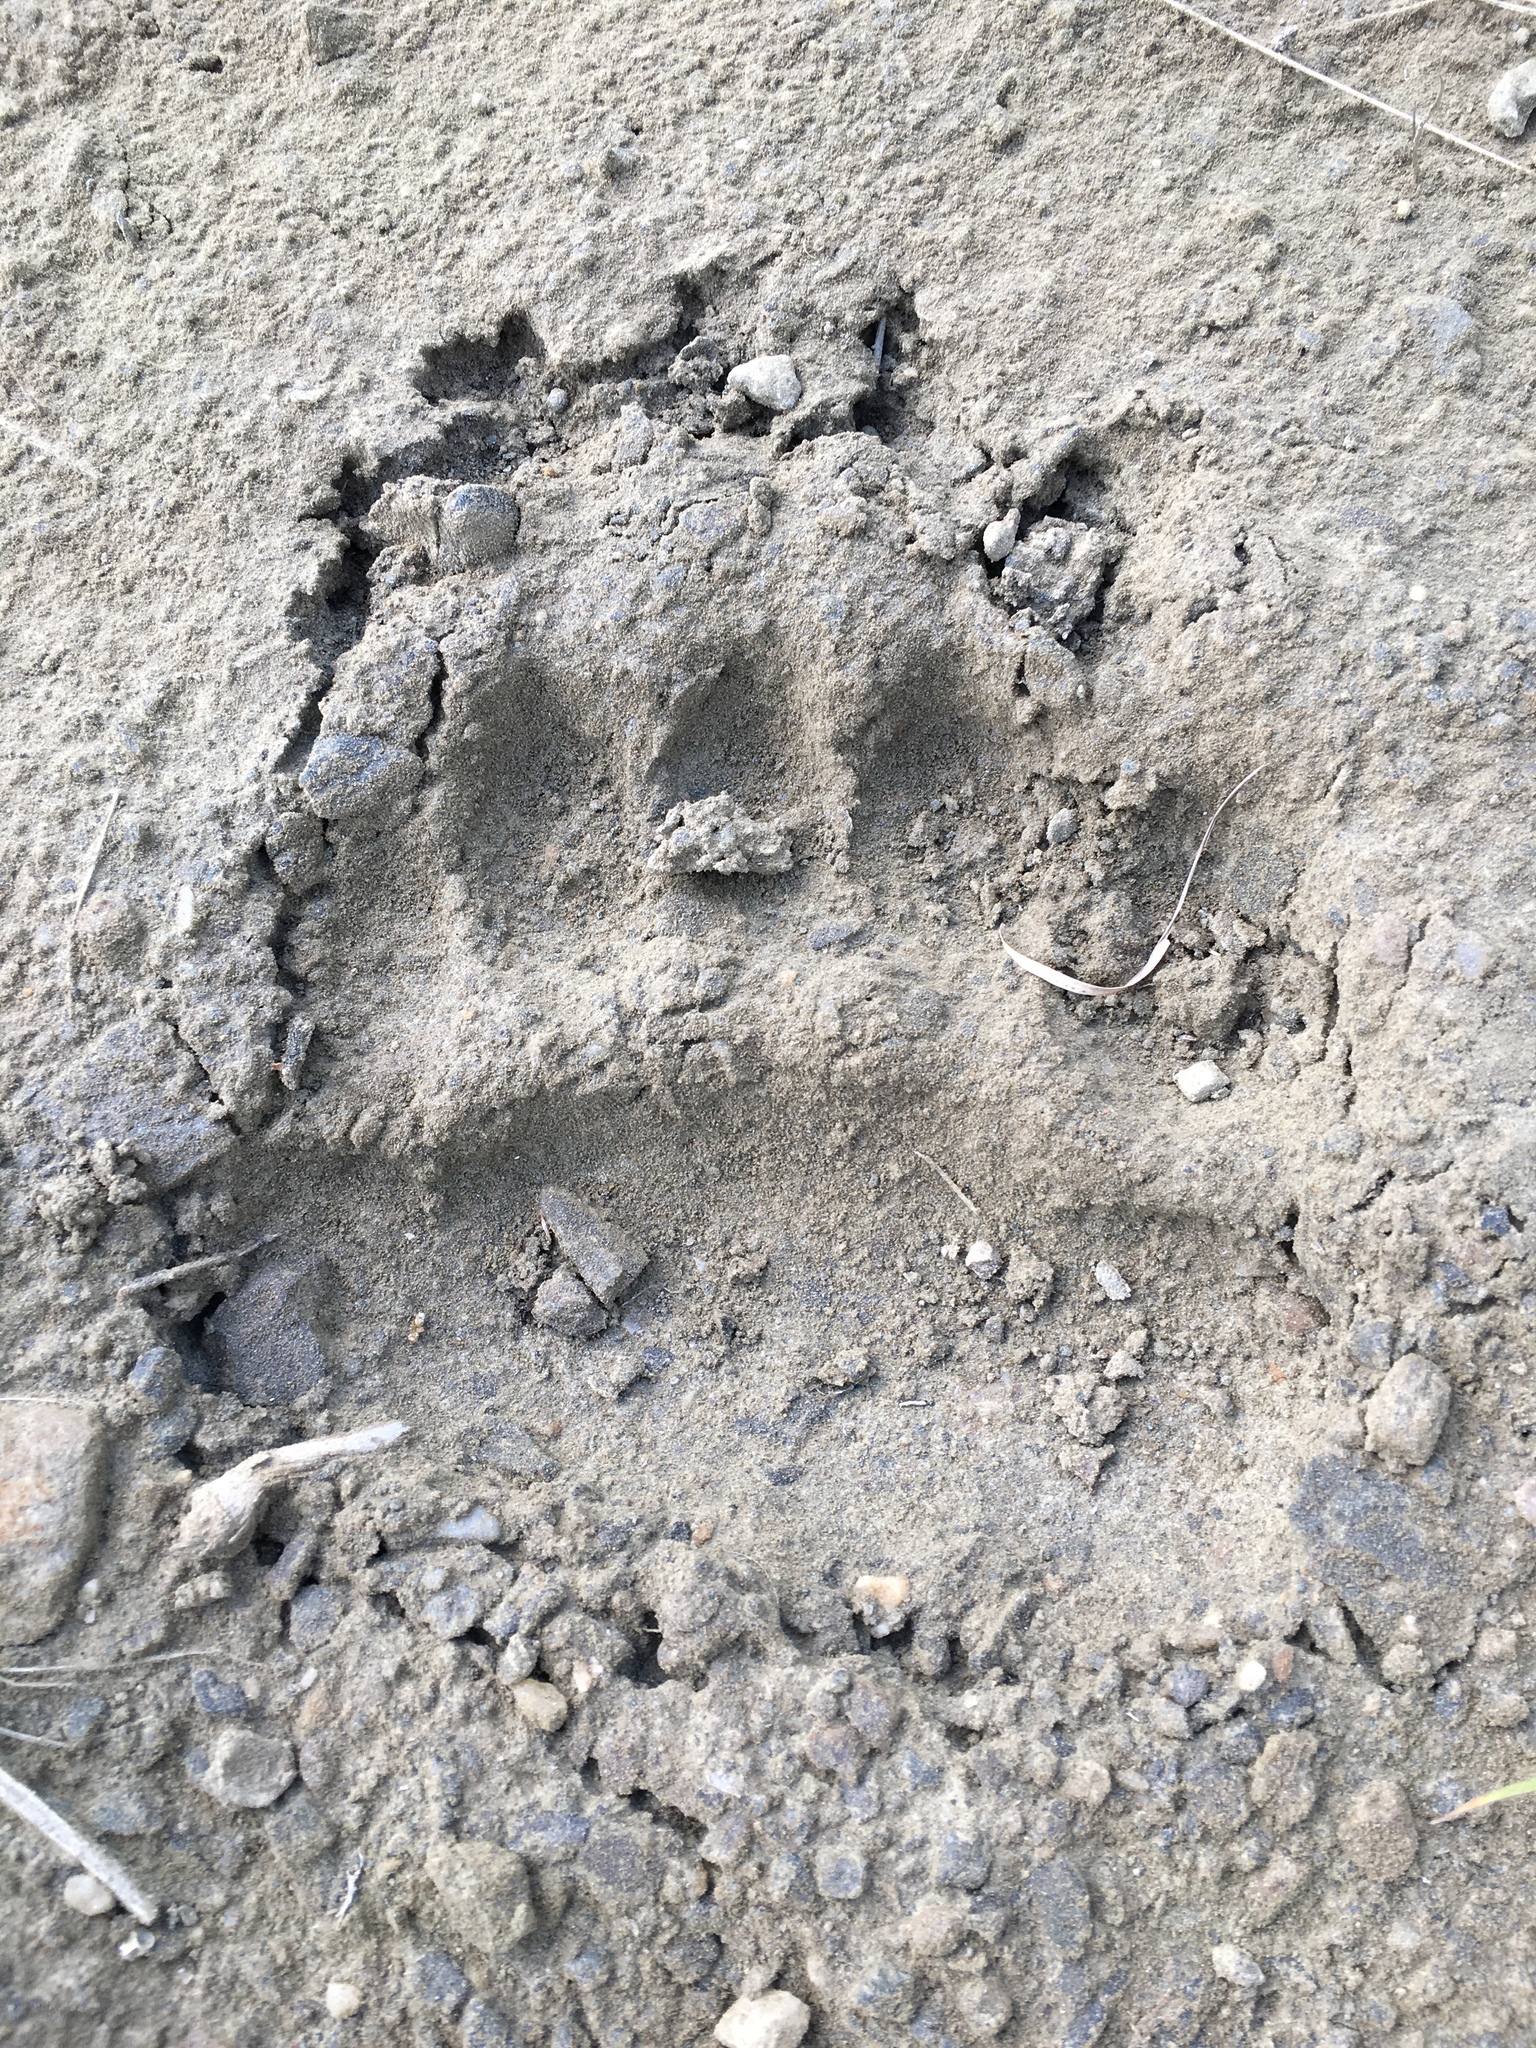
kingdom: Animalia
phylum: Chordata
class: Mammalia
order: Carnivora
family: Ursidae
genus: Ursus
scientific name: Ursus arctos
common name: Brown bear
